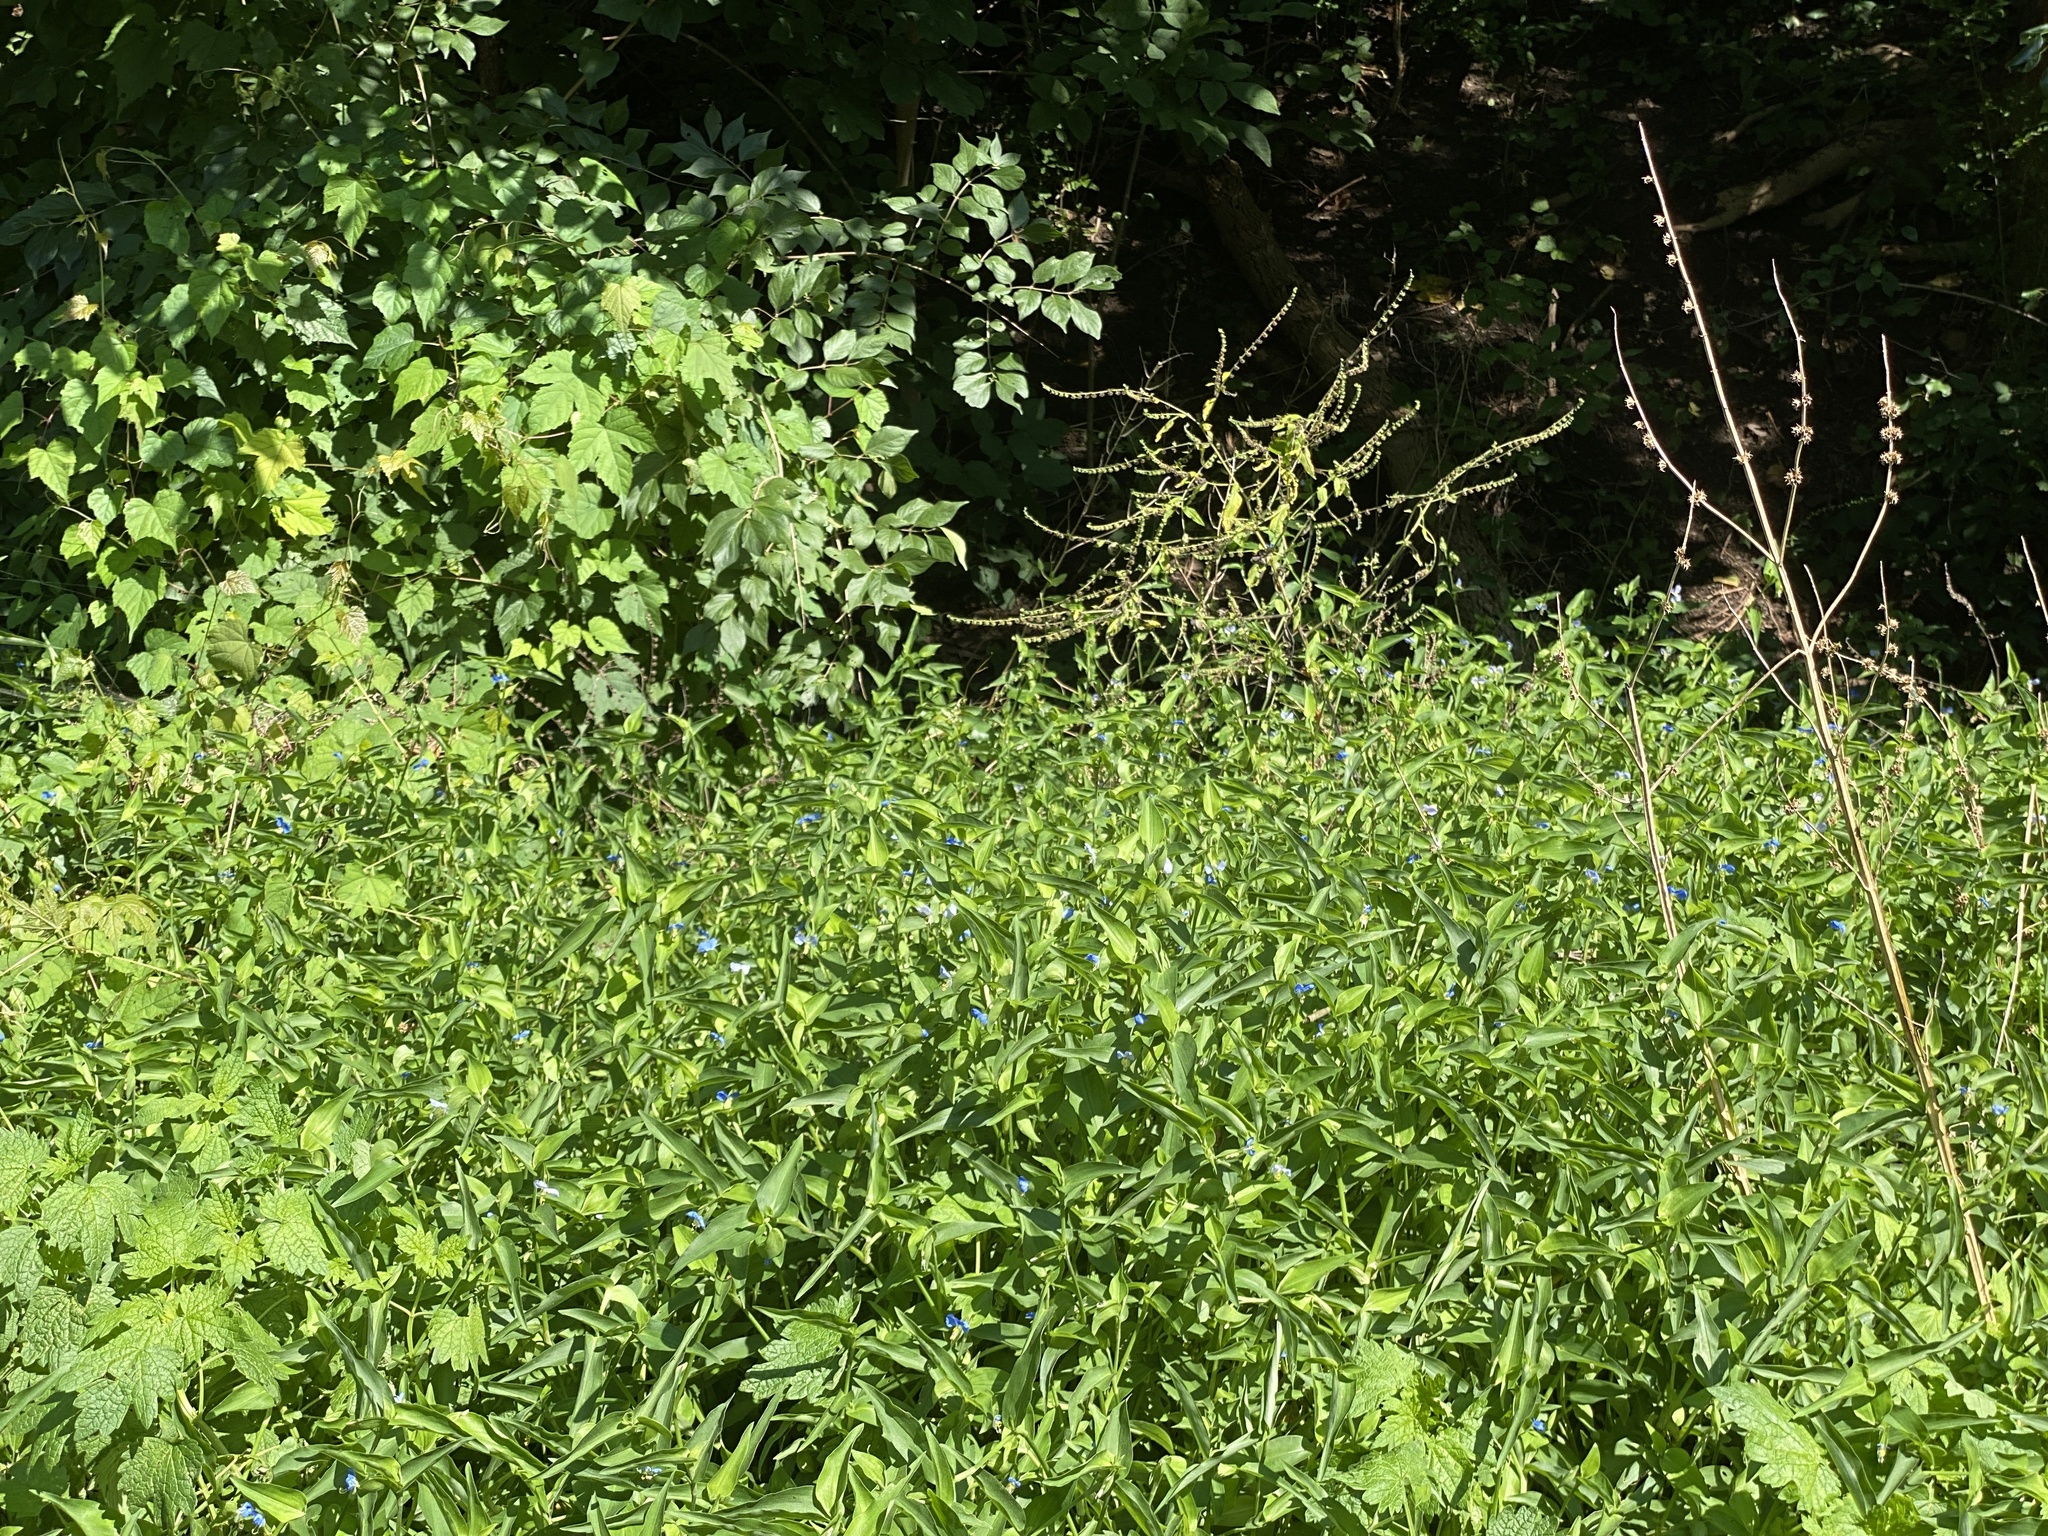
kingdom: Plantae
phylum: Tracheophyta
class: Liliopsida
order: Commelinales
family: Commelinaceae
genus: Commelina
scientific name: Commelina communis
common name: Asiatic dayflower
